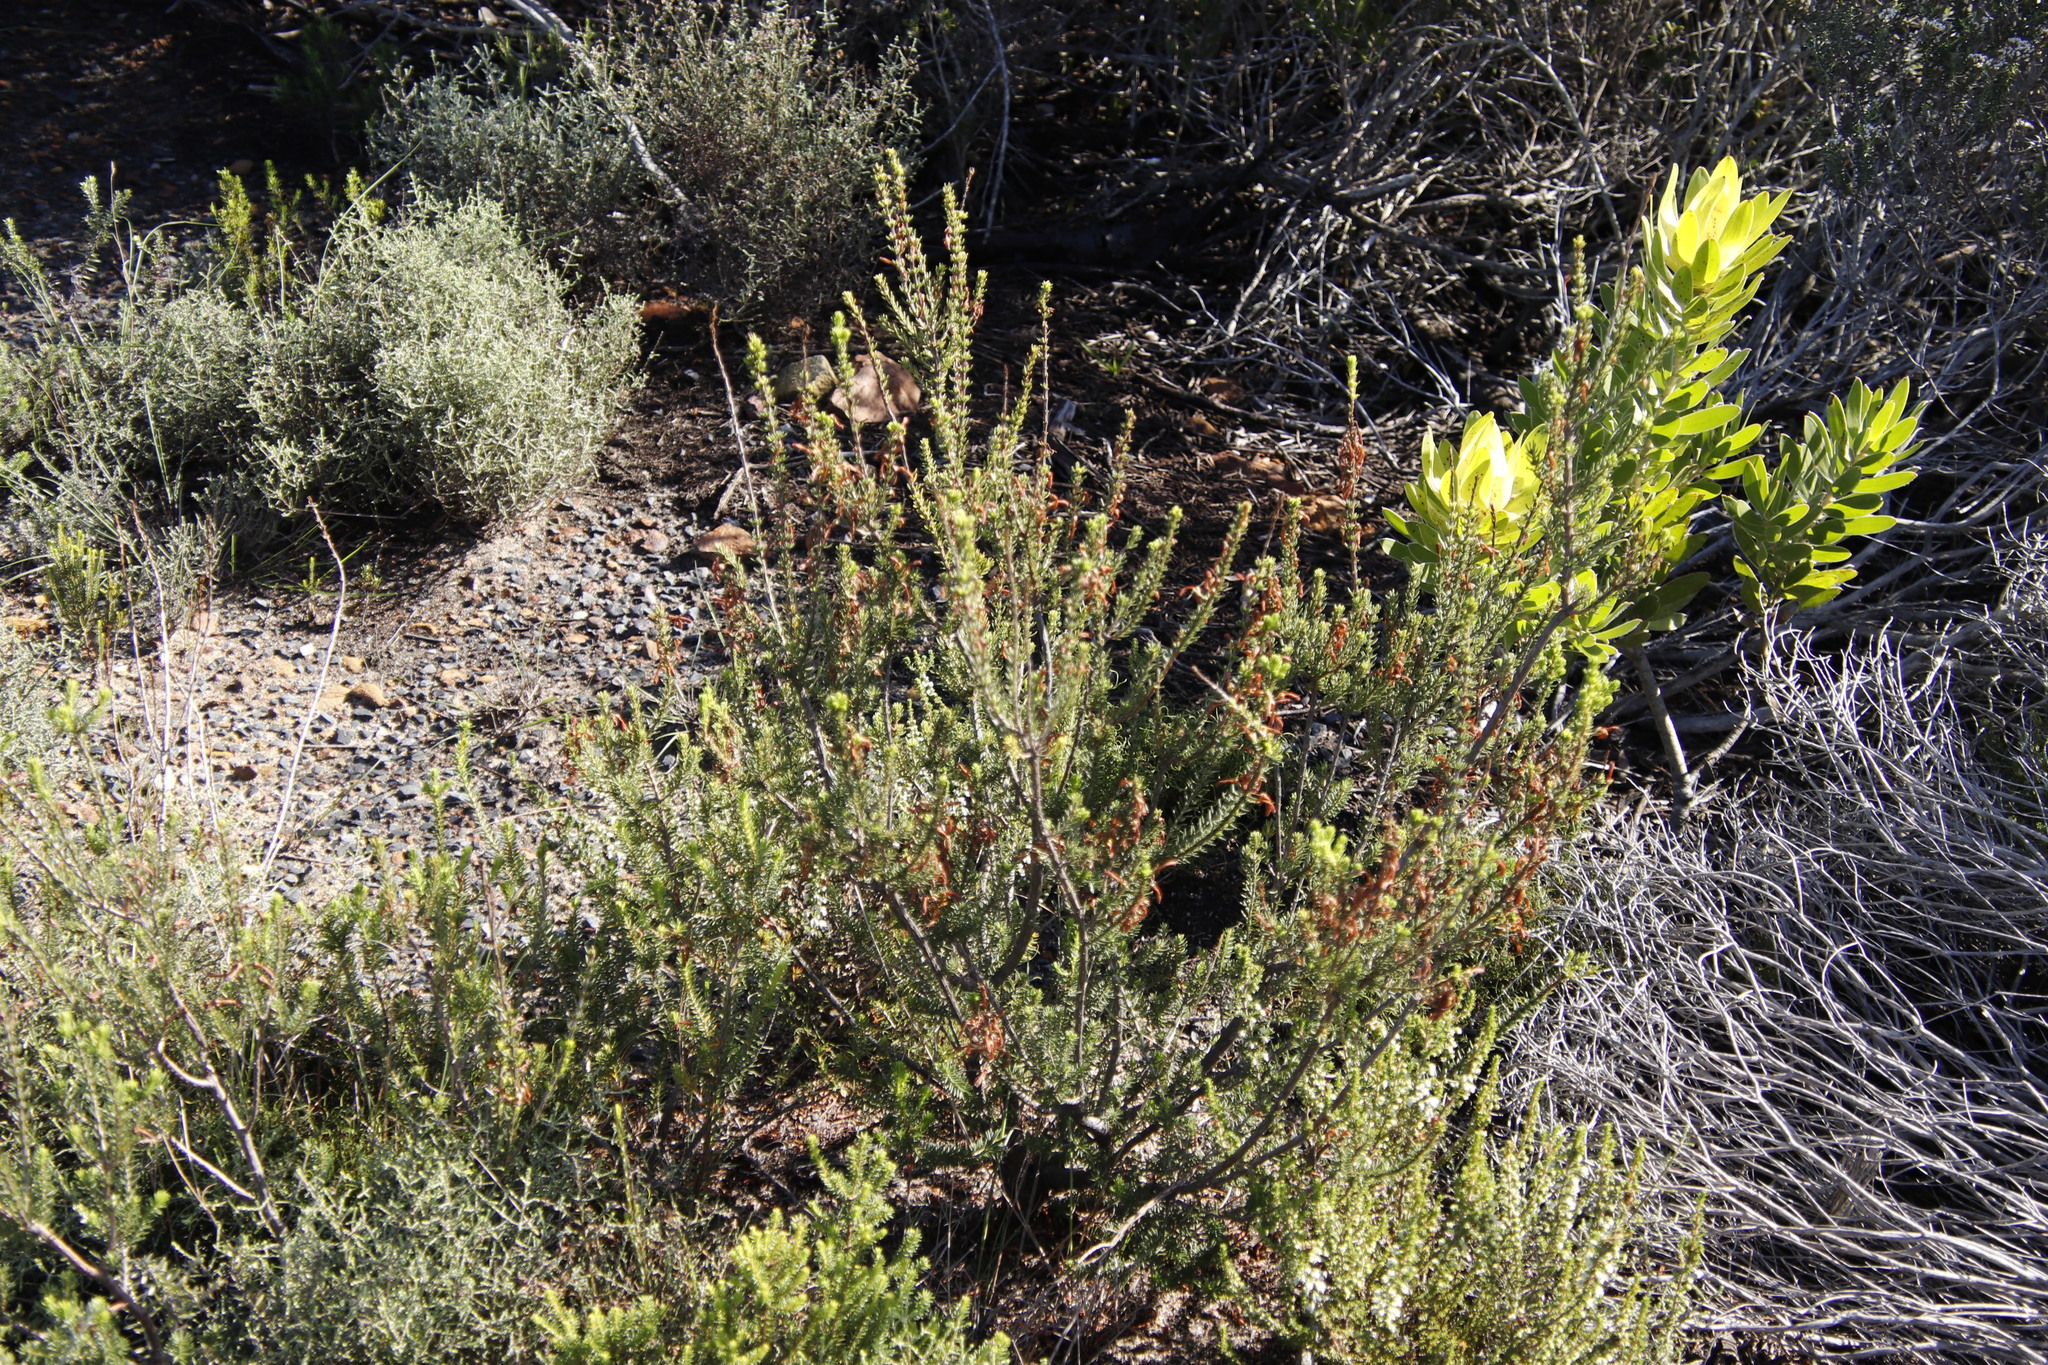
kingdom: Plantae
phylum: Tracheophyta
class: Magnoliopsida
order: Ericales
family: Ericaceae
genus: Erica
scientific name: Erica mammosa
